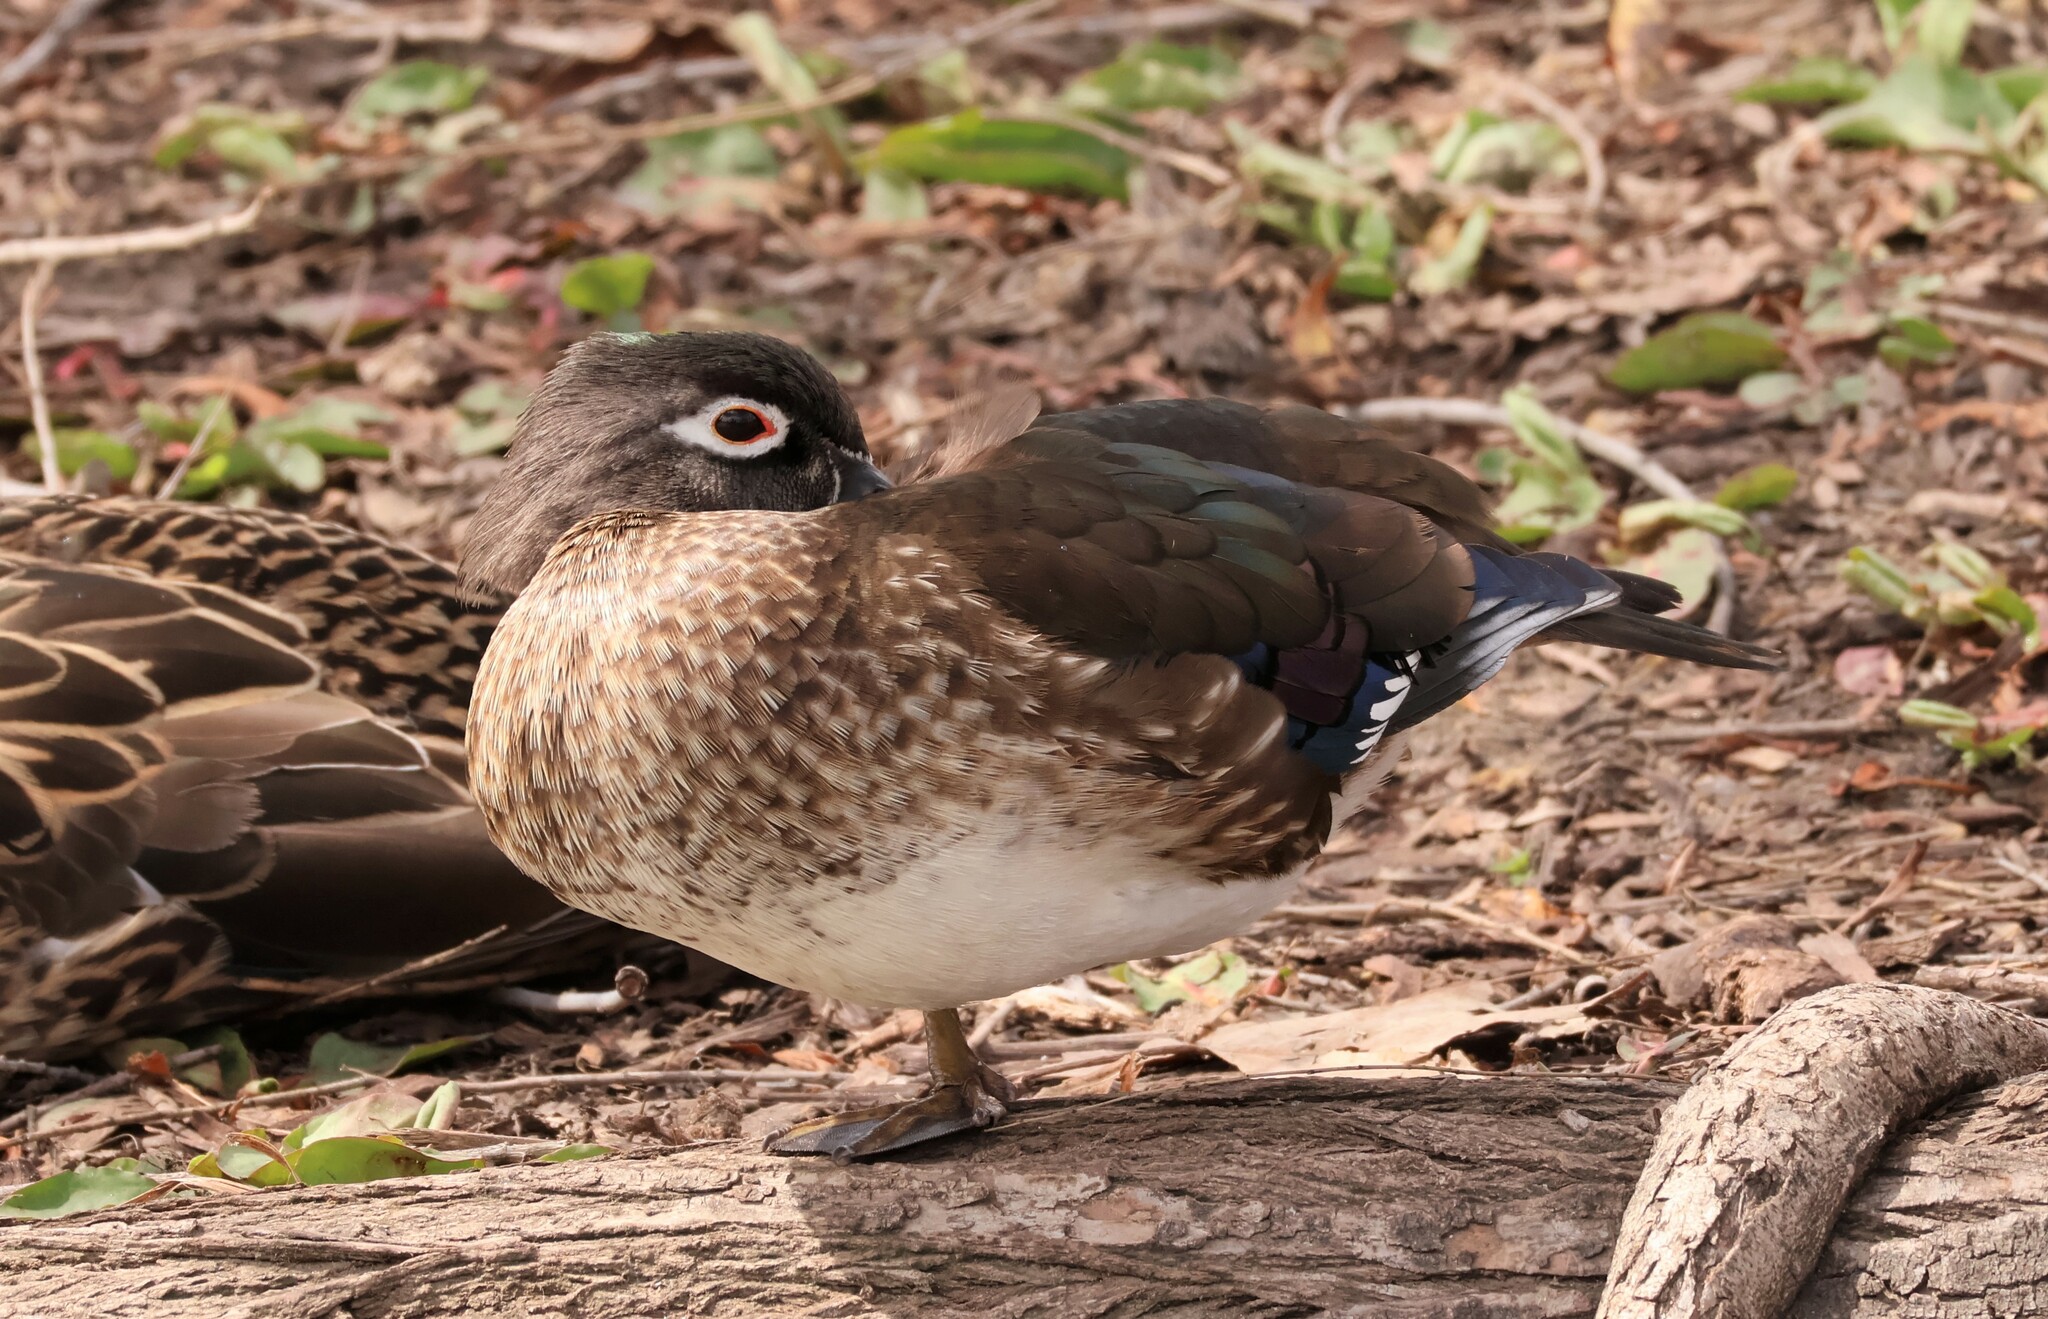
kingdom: Animalia
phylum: Chordata
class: Aves
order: Anseriformes
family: Anatidae
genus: Aix
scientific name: Aix sponsa
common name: Wood duck
